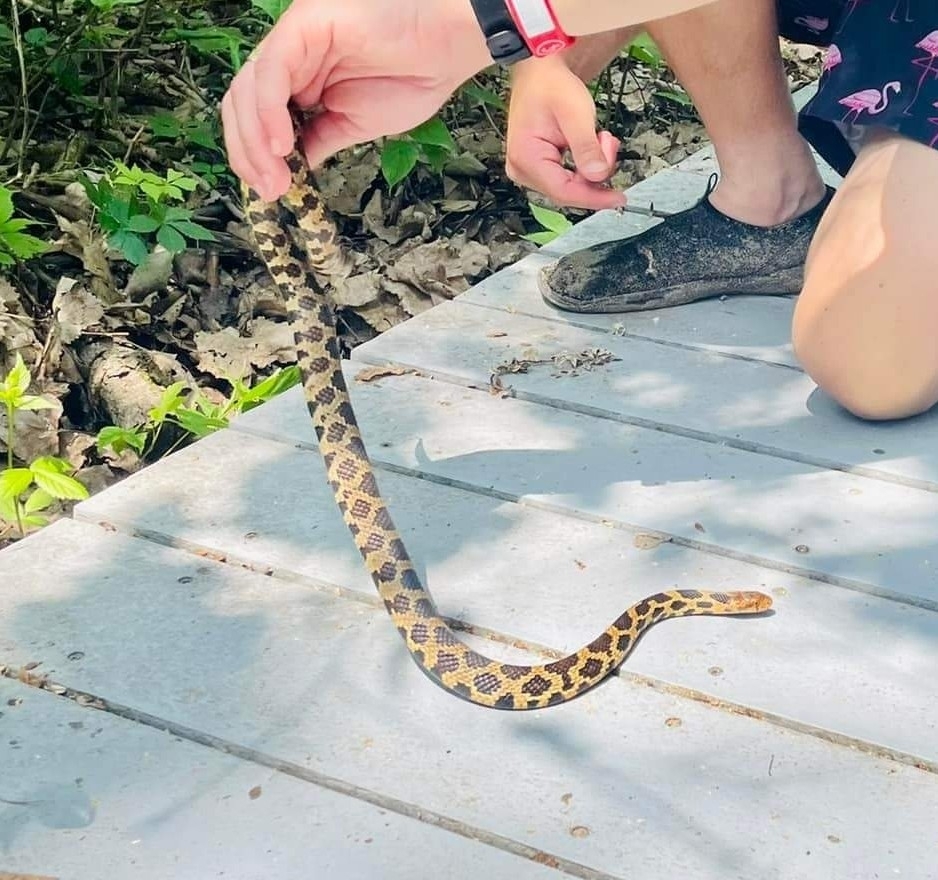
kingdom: Animalia
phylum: Chordata
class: Squamata
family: Colubridae
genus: Pantherophis
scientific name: Pantherophis vulpinus
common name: Eastern fox snake
